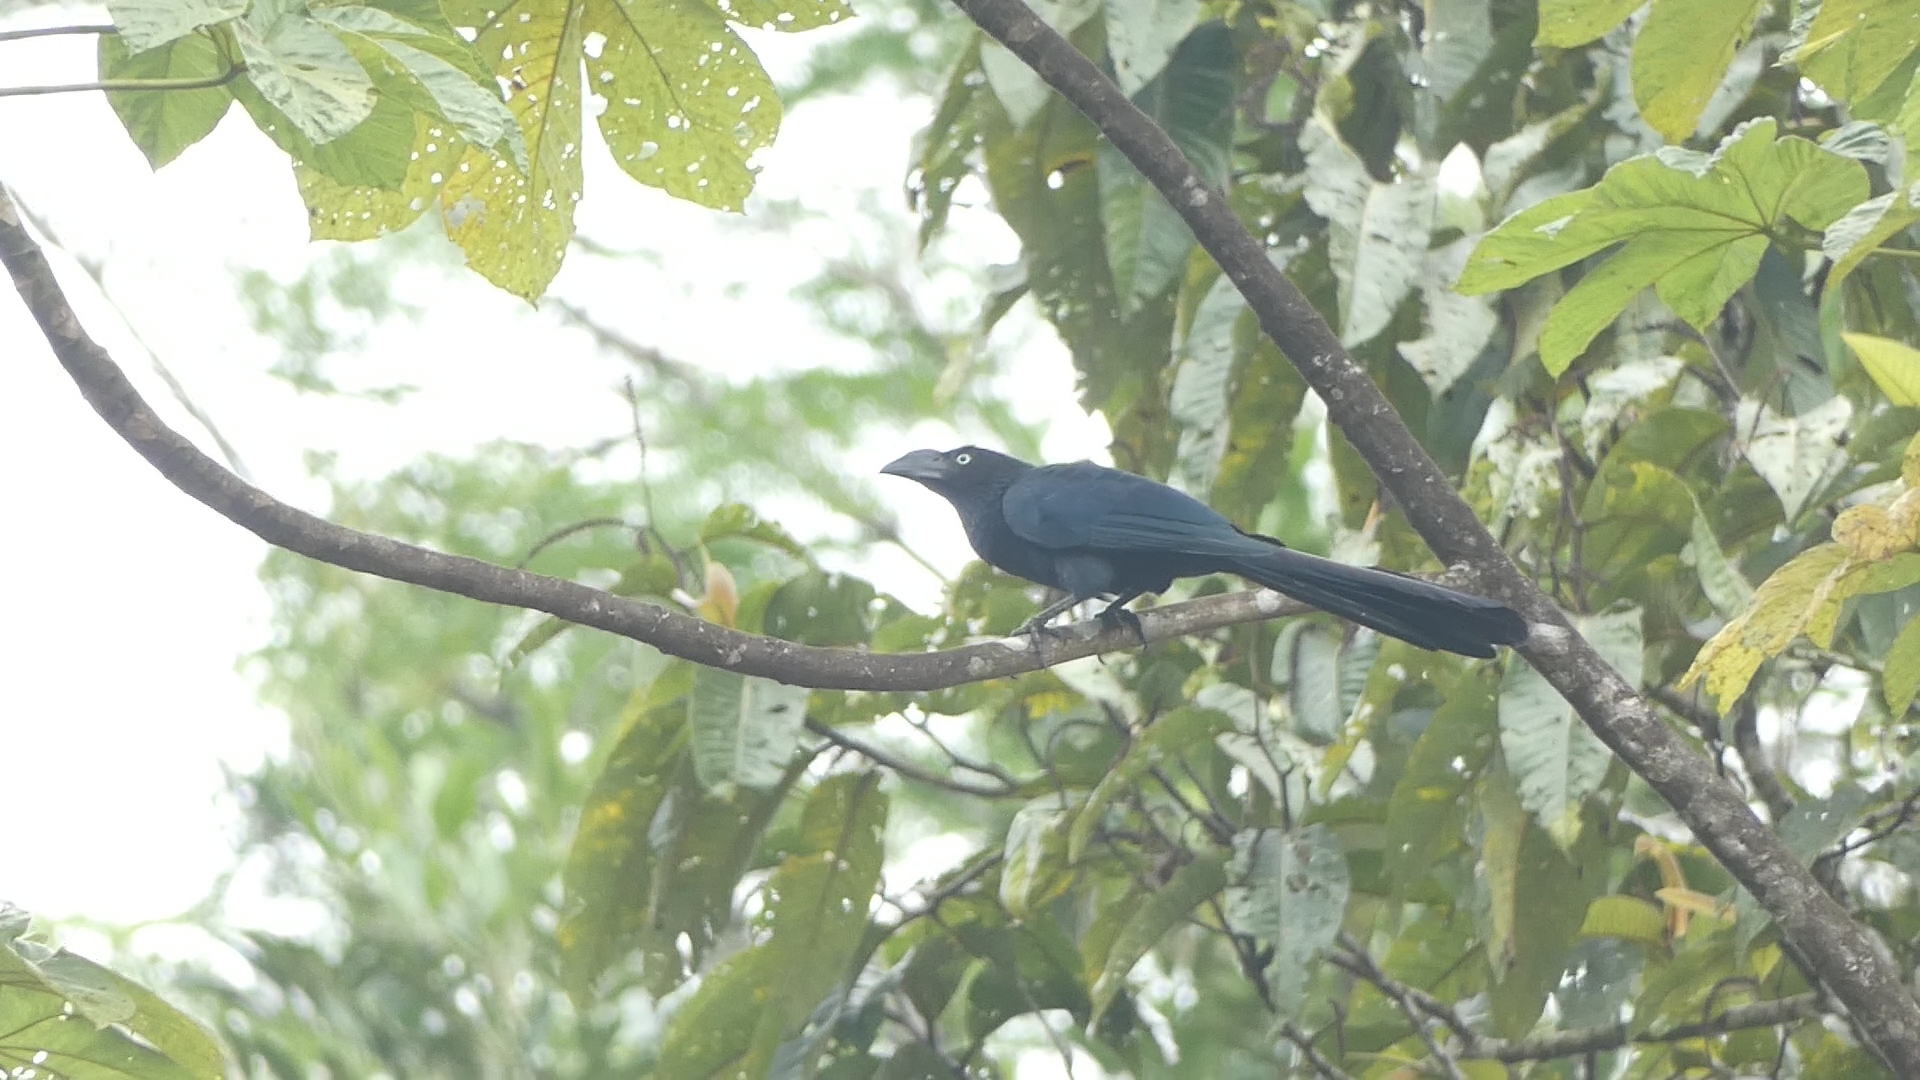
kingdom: Animalia
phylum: Chordata
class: Aves
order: Cuculiformes
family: Cuculidae
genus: Crotophaga
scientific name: Crotophaga major
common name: Greater ani
